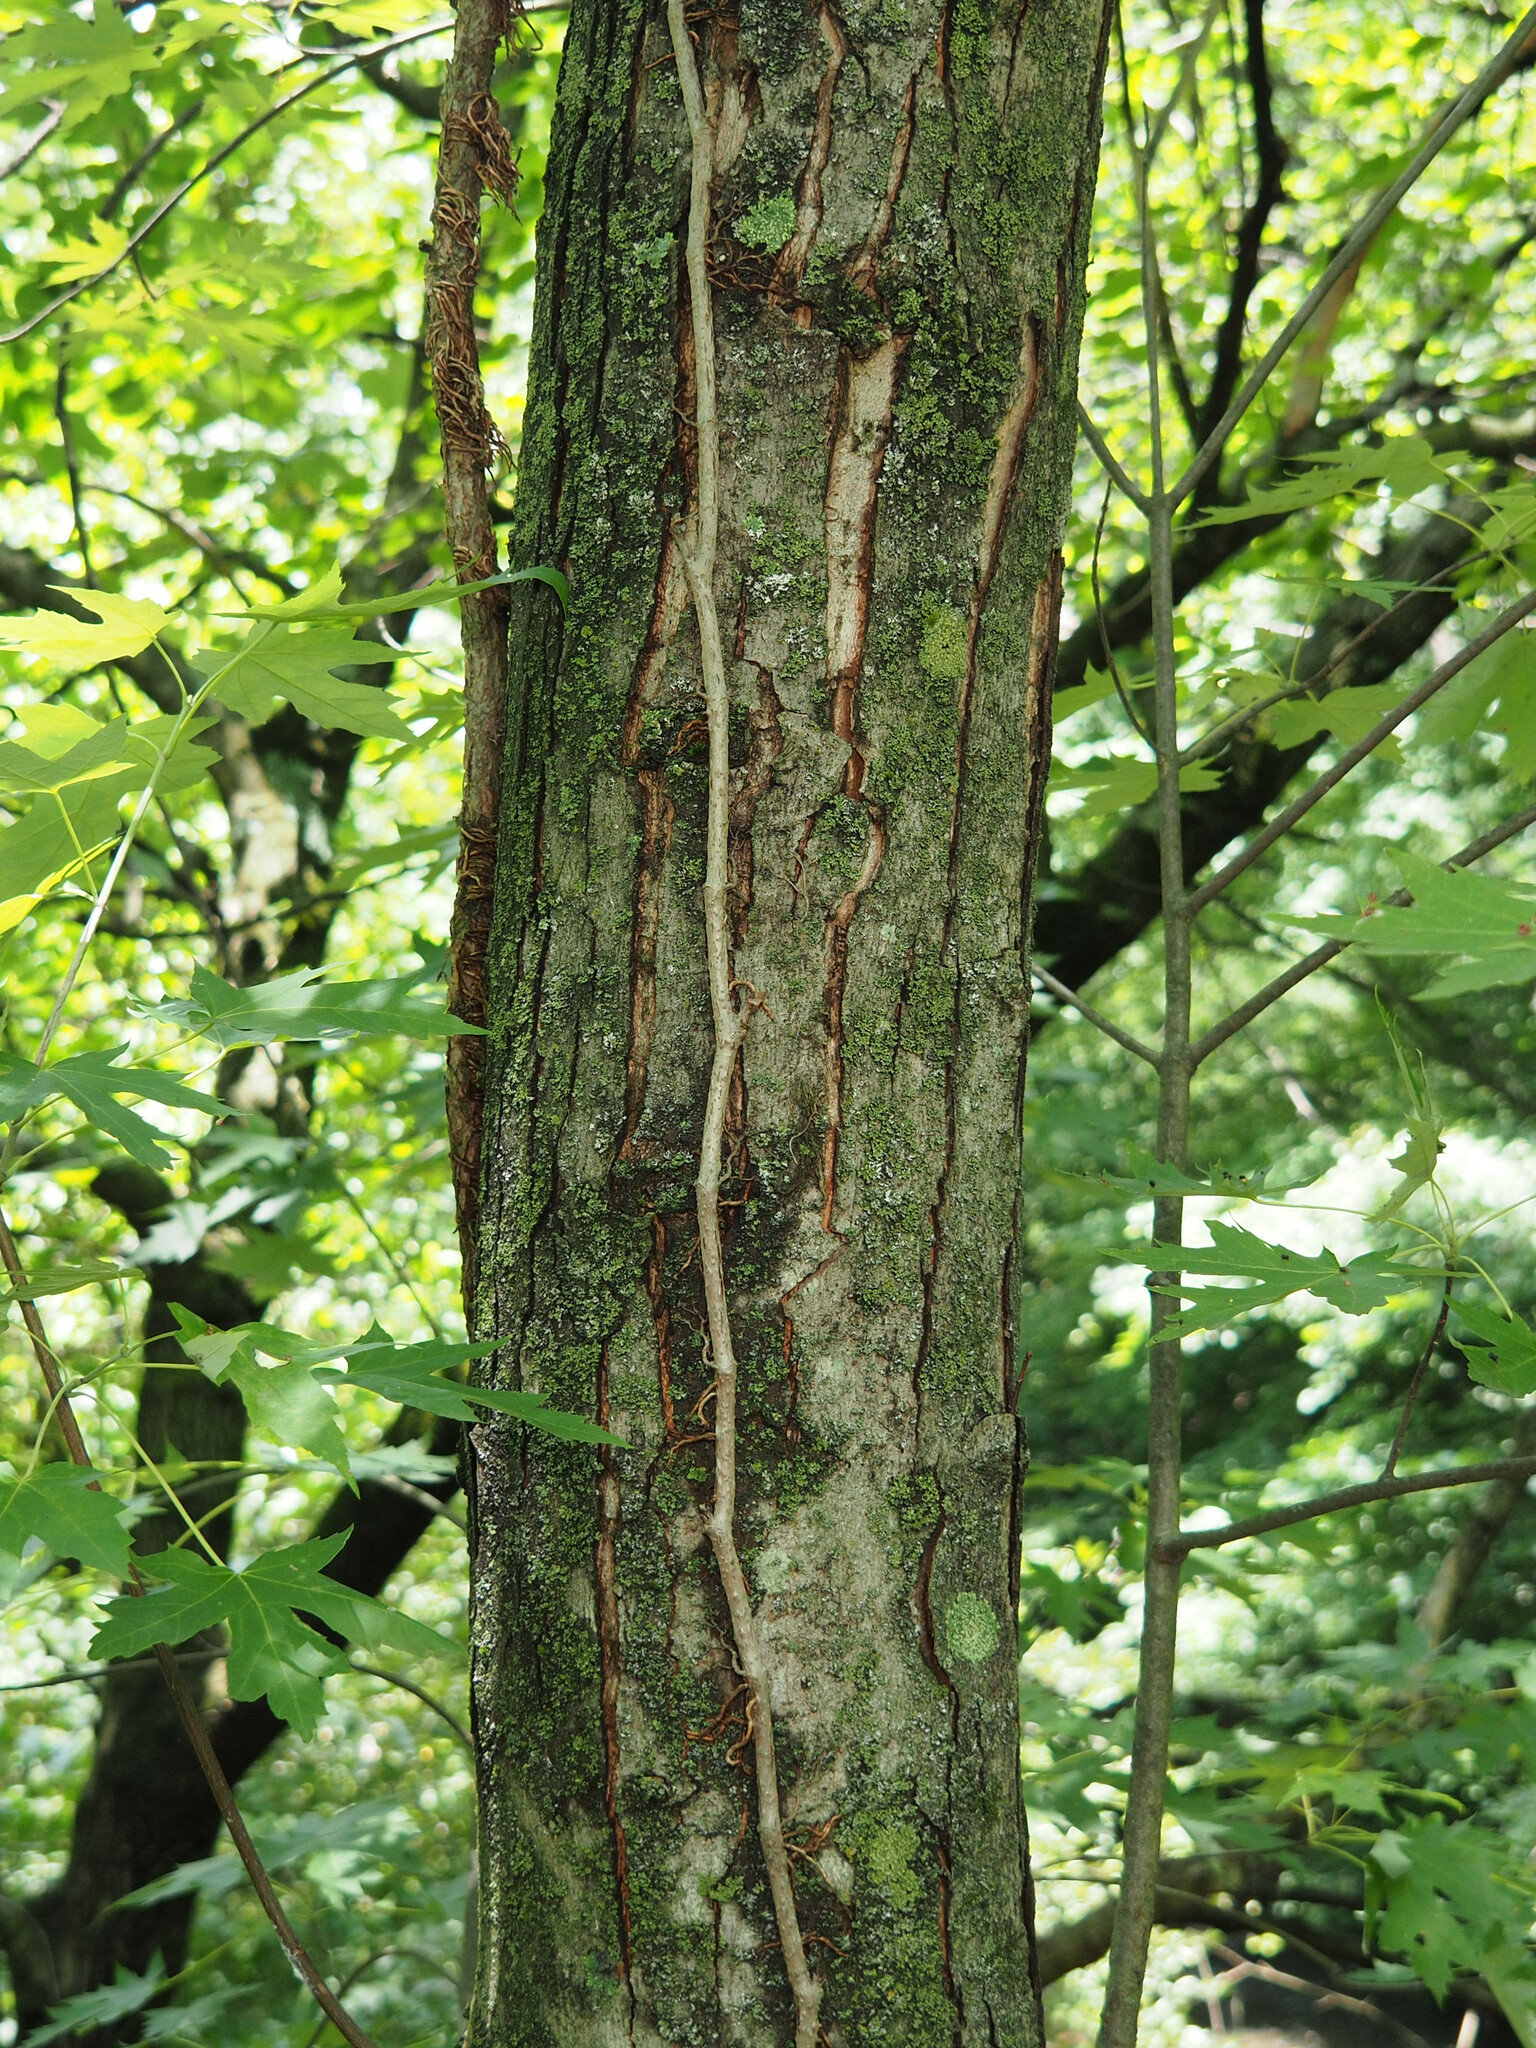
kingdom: Plantae
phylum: Tracheophyta
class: Magnoliopsida
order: Sapindales
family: Sapindaceae
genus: Acer
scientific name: Acer saccharinum
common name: Silver maple
